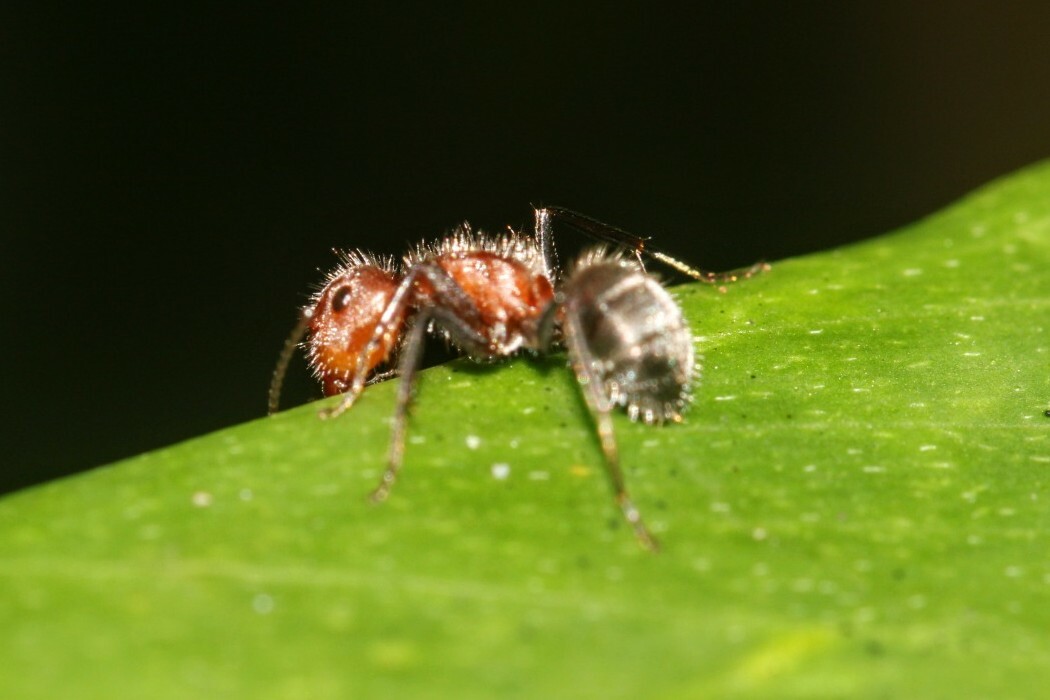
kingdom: Animalia
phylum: Arthropoda
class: Insecta
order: Hymenoptera
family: Formicidae
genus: Camponotus
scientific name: Camponotus planatus
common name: Compact carpenter ant
